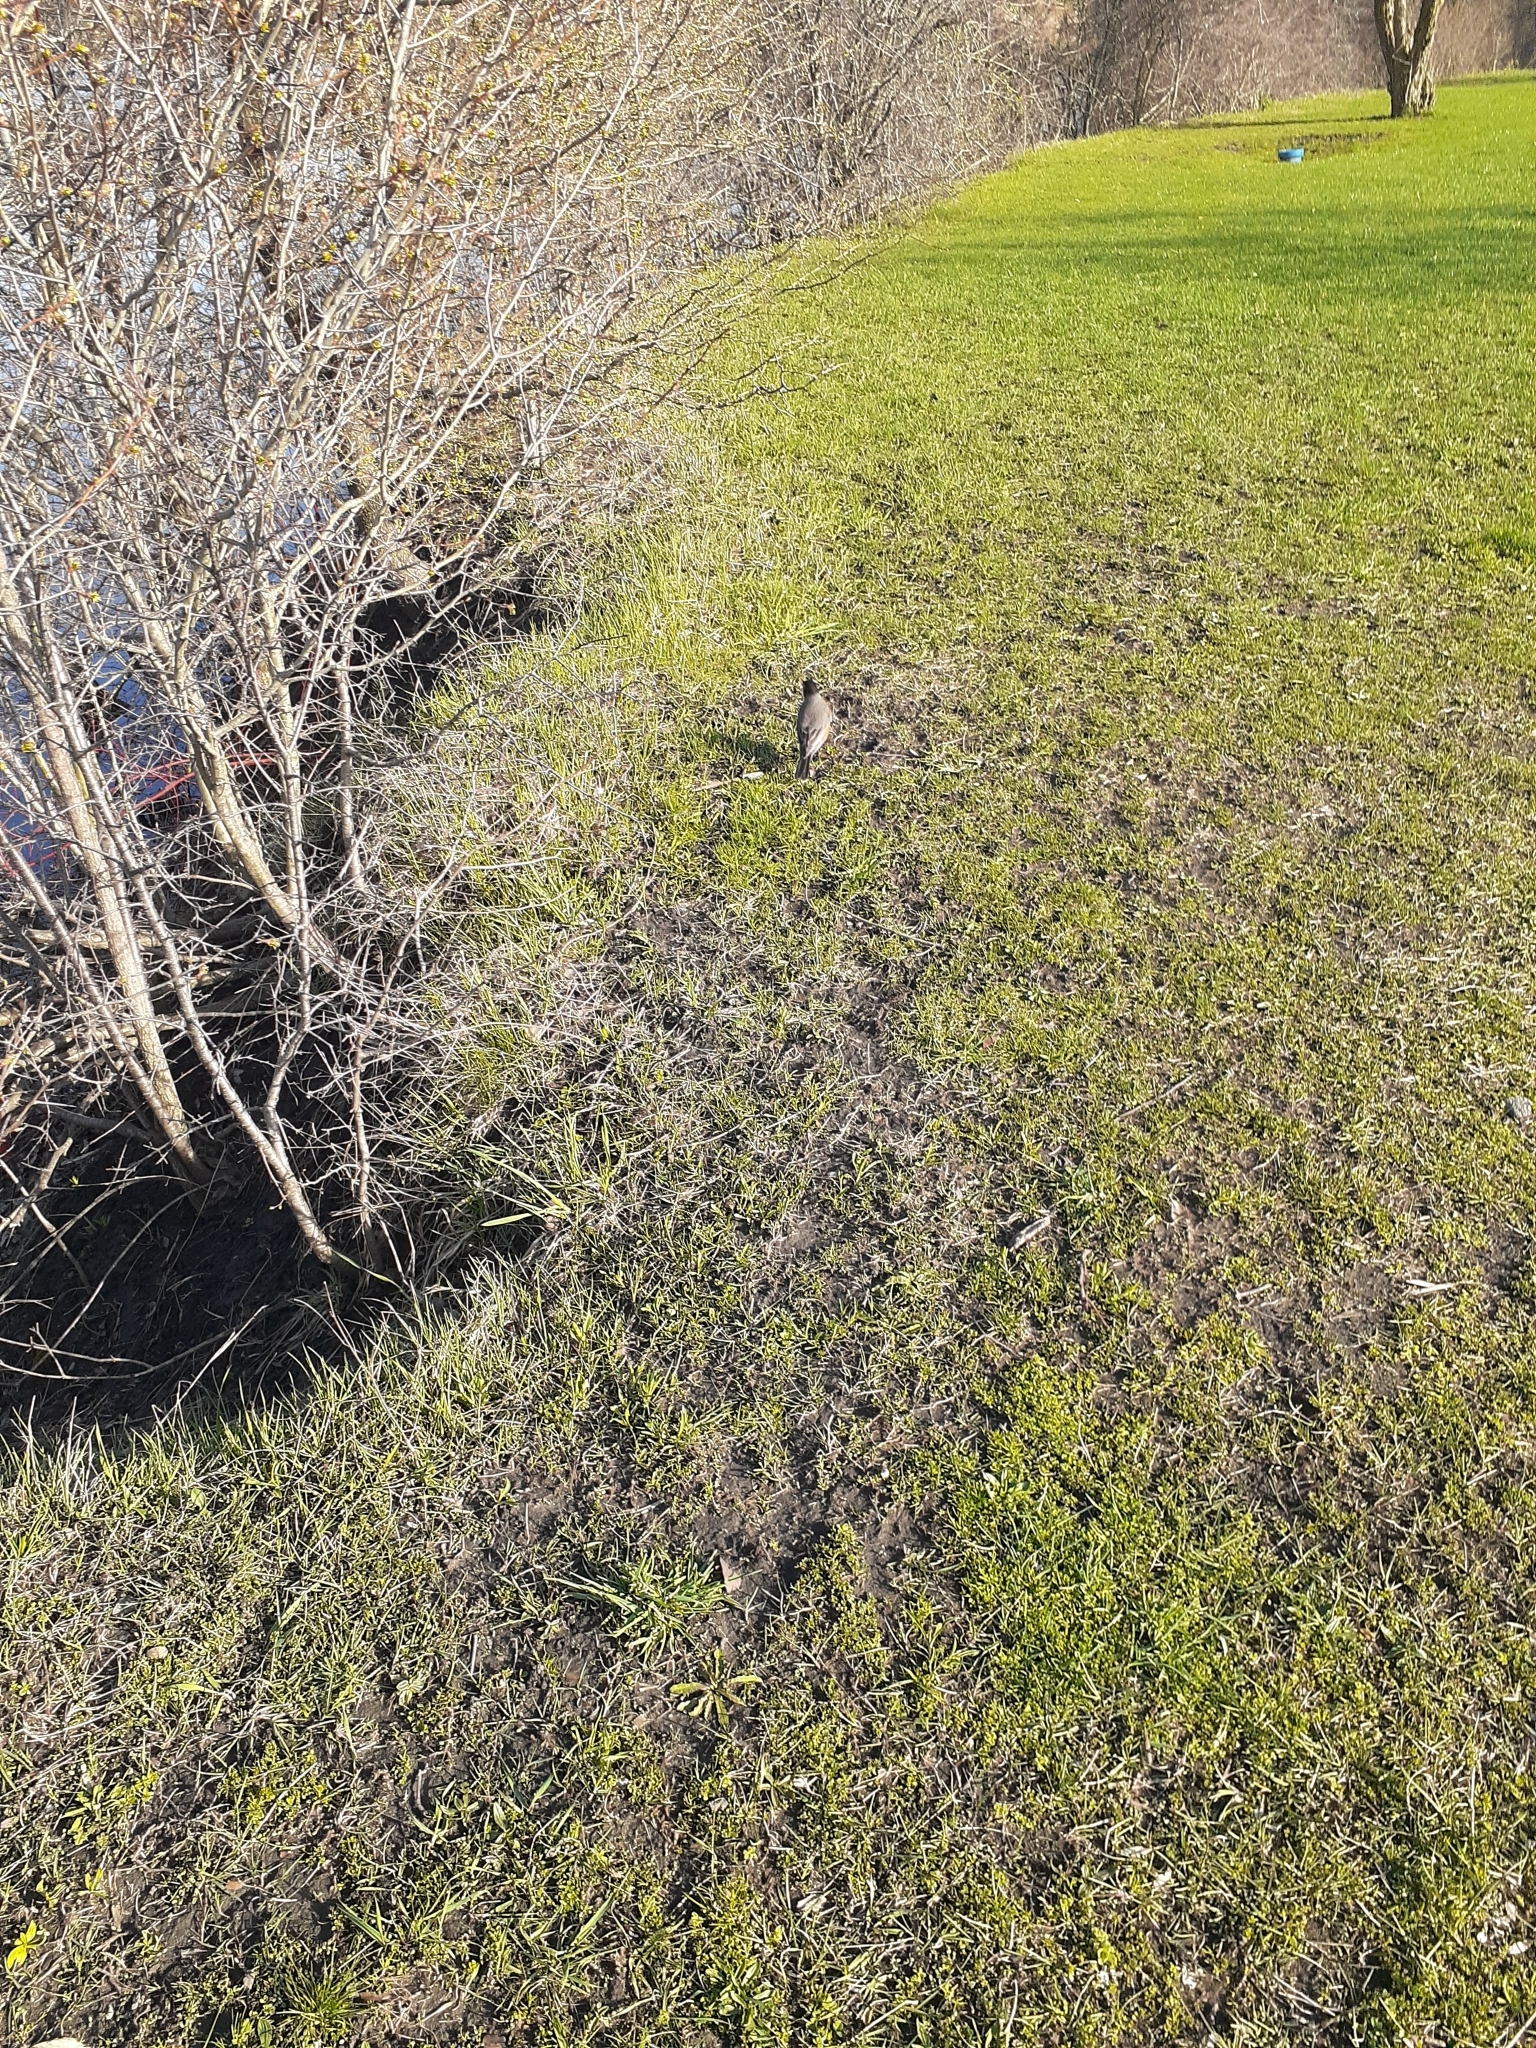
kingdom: Animalia
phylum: Chordata
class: Aves
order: Passeriformes
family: Turdidae
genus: Turdus
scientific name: Turdus migratorius
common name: American robin
